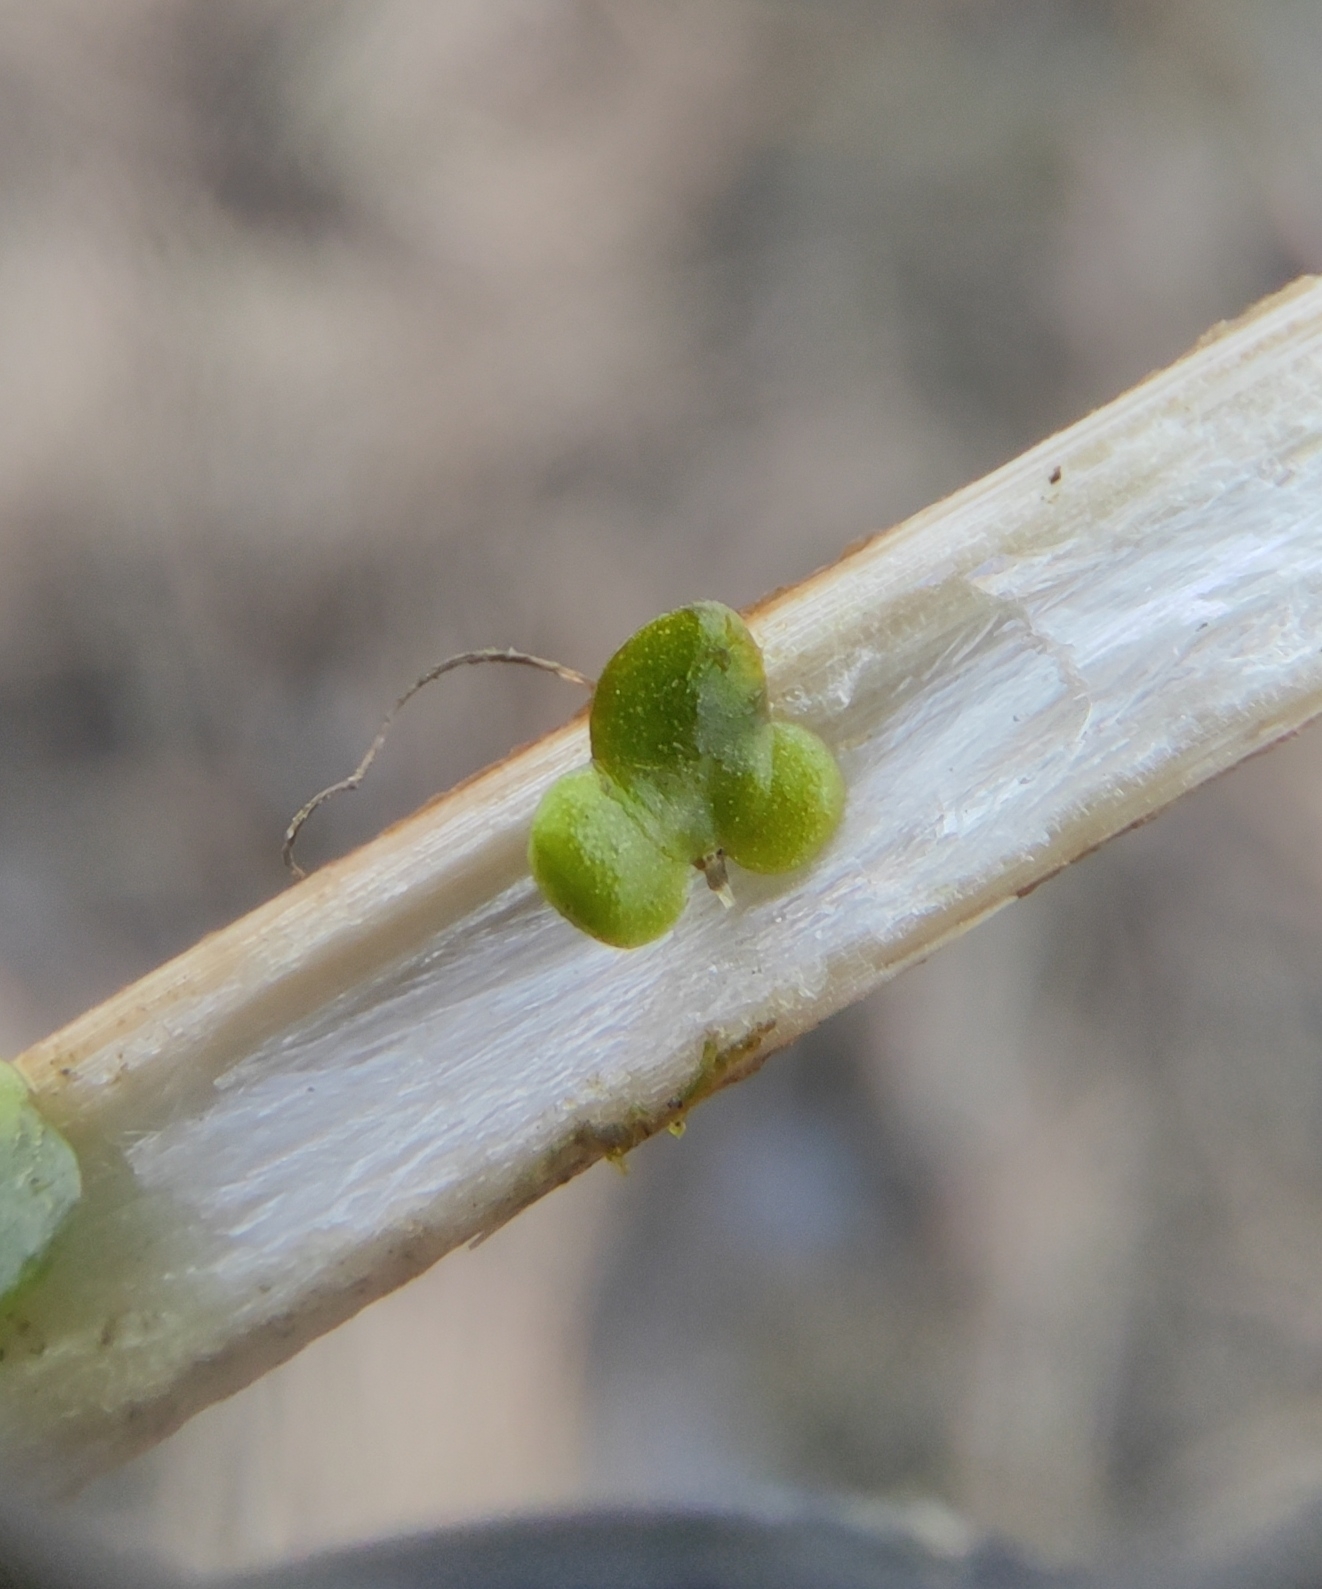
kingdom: Plantae
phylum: Tracheophyta
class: Liliopsida
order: Alismatales
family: Araceae
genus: Lemna
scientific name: Lemna minor
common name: Common duckweed
